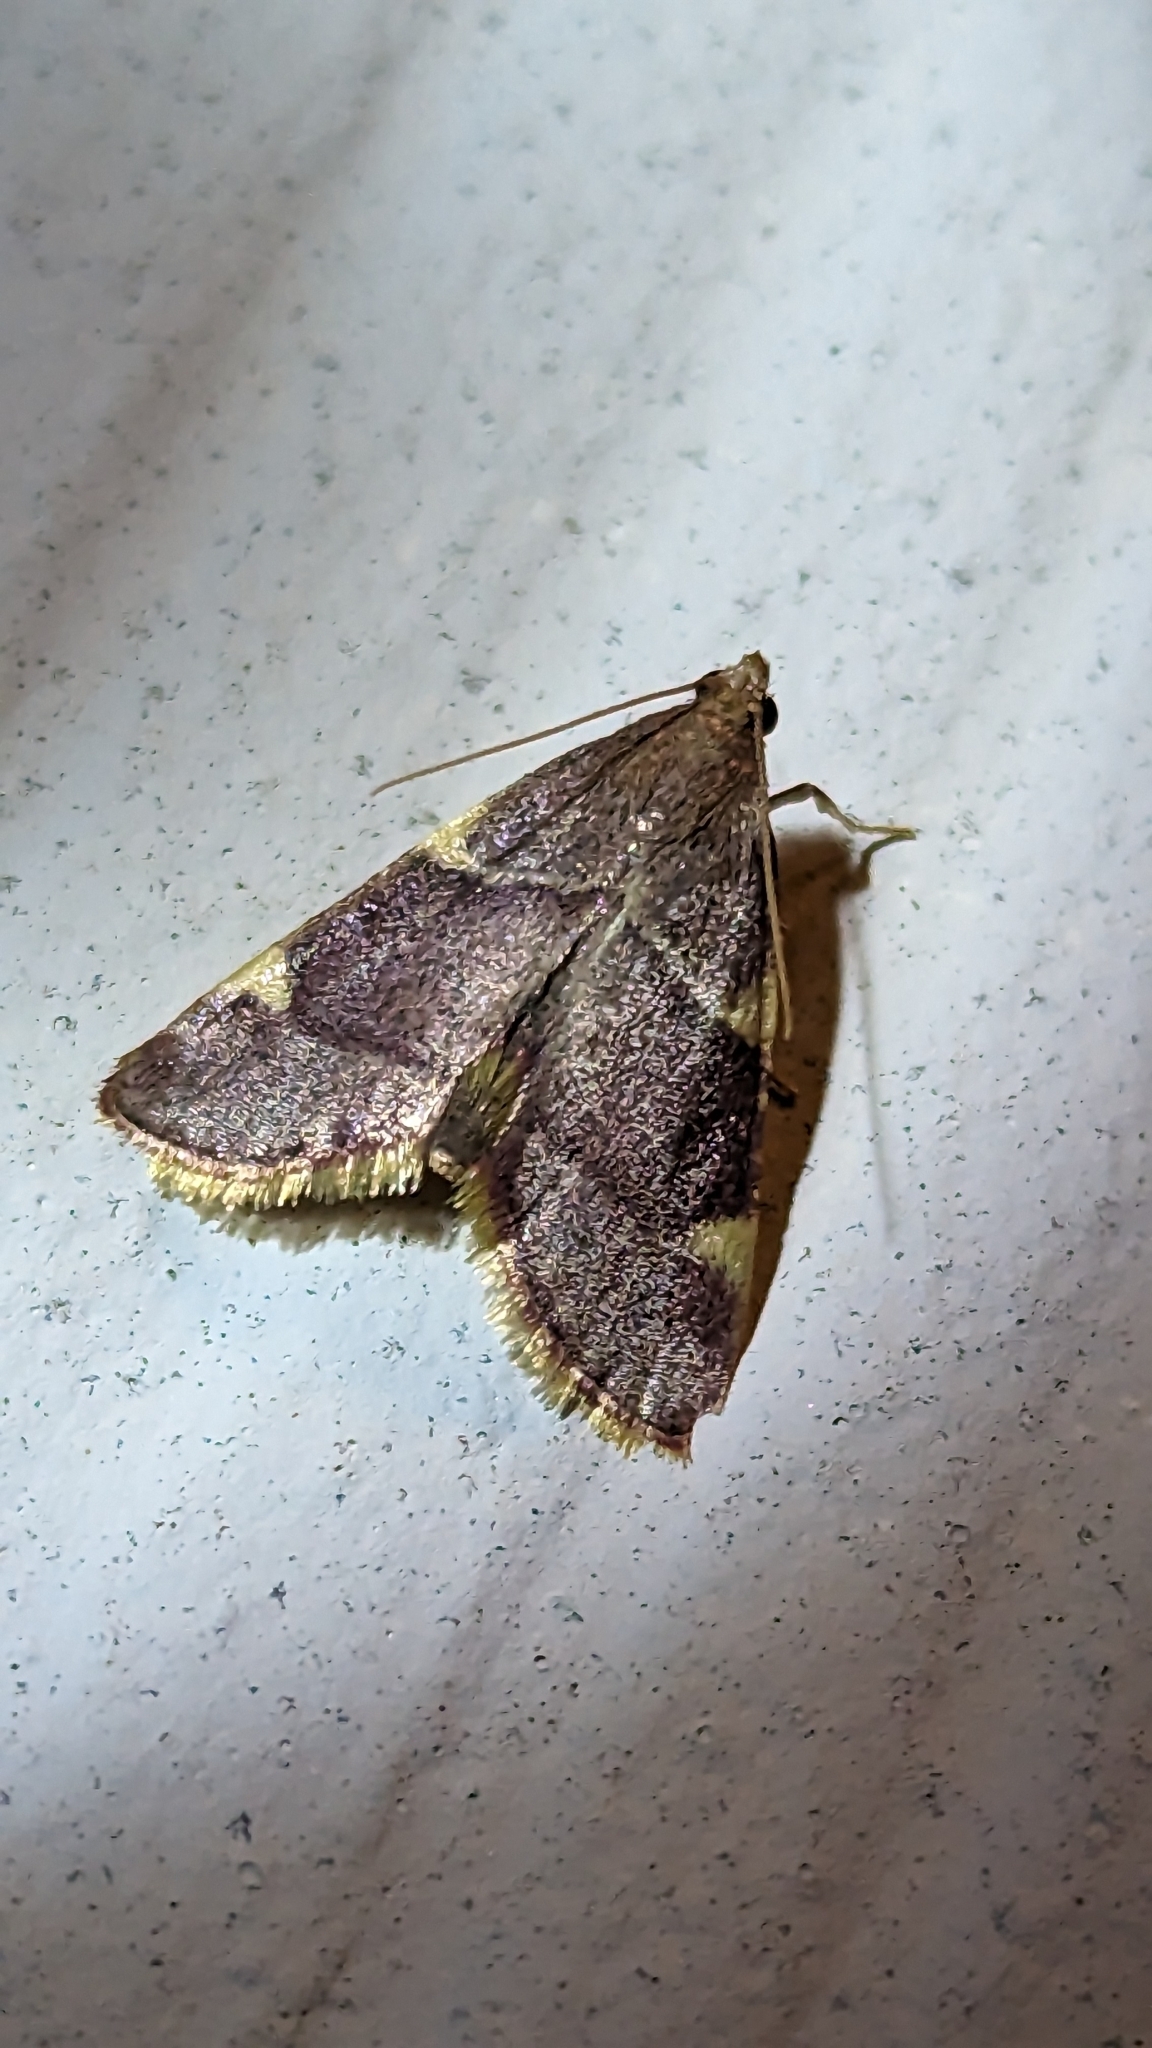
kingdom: Animalia
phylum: Arthropoda
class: Insecta
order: Lepidoptera
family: Pyralidae
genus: Hypsopygia
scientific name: Hypsopygia olinalis
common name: Yellow-fringed dolichomia moth
